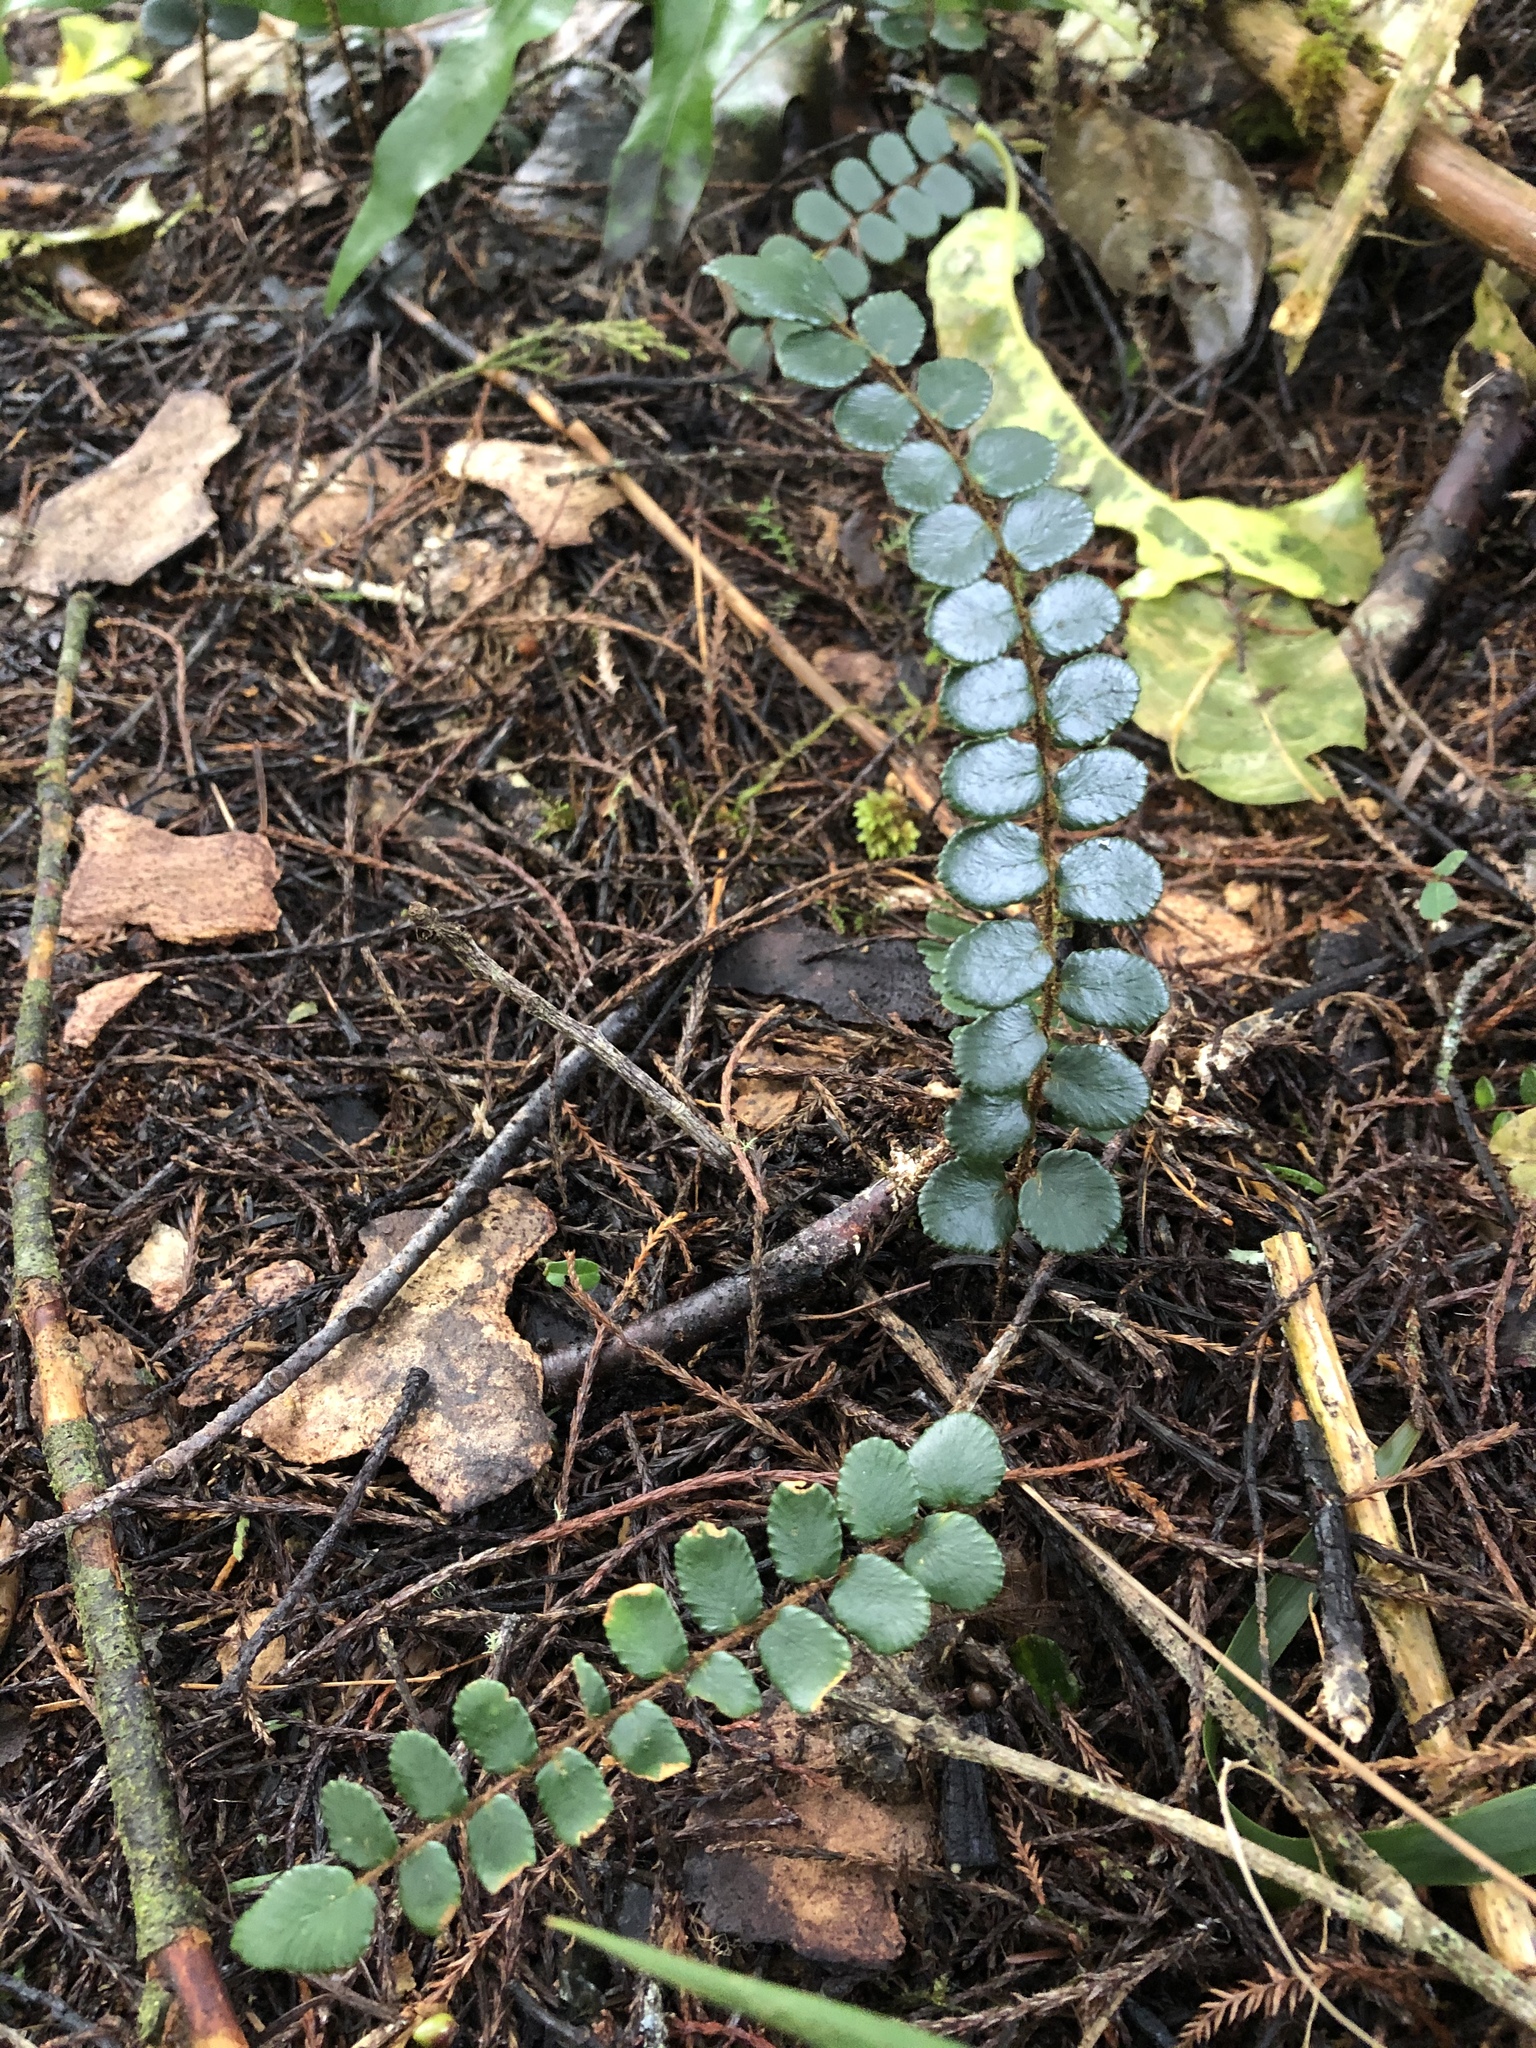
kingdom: Plantae
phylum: Tracheophyta
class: Polypodiopsida
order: Polypodiales
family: Pteridaceae
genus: Pellaea
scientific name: Pellaea rotundifolia
